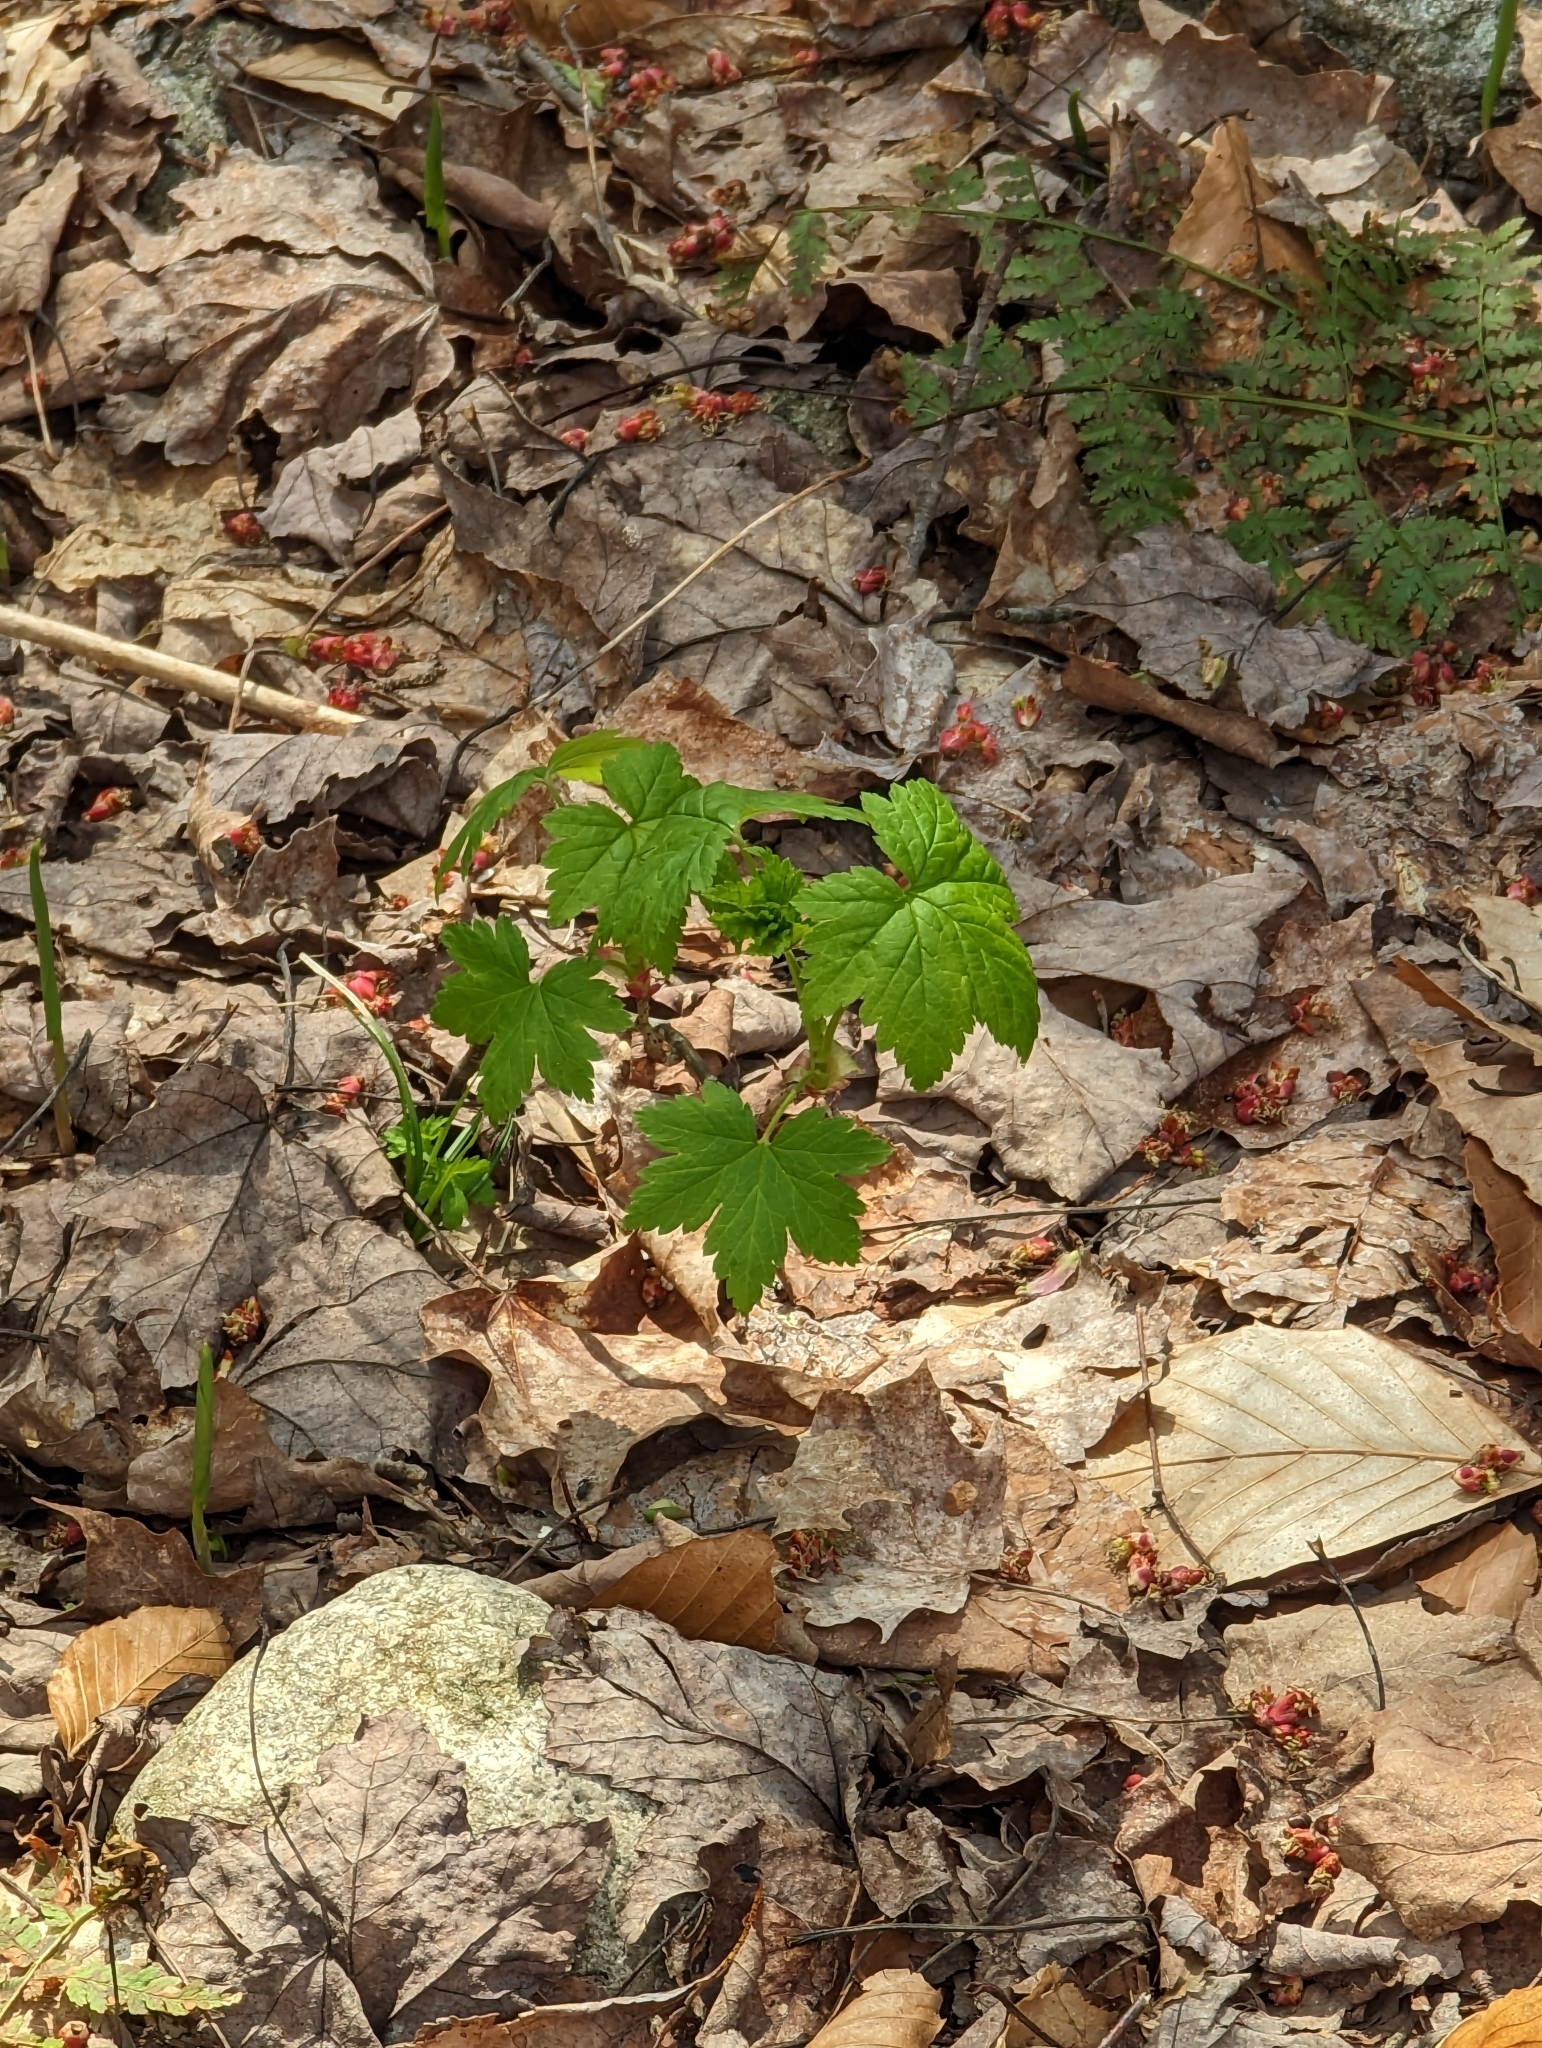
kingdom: Plantae
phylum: Tracheophyta
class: Magnoliopsida
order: Saxifragales
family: Grossulariaceae
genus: Ribes
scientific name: Ribes glandulosum
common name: Skunk currant
